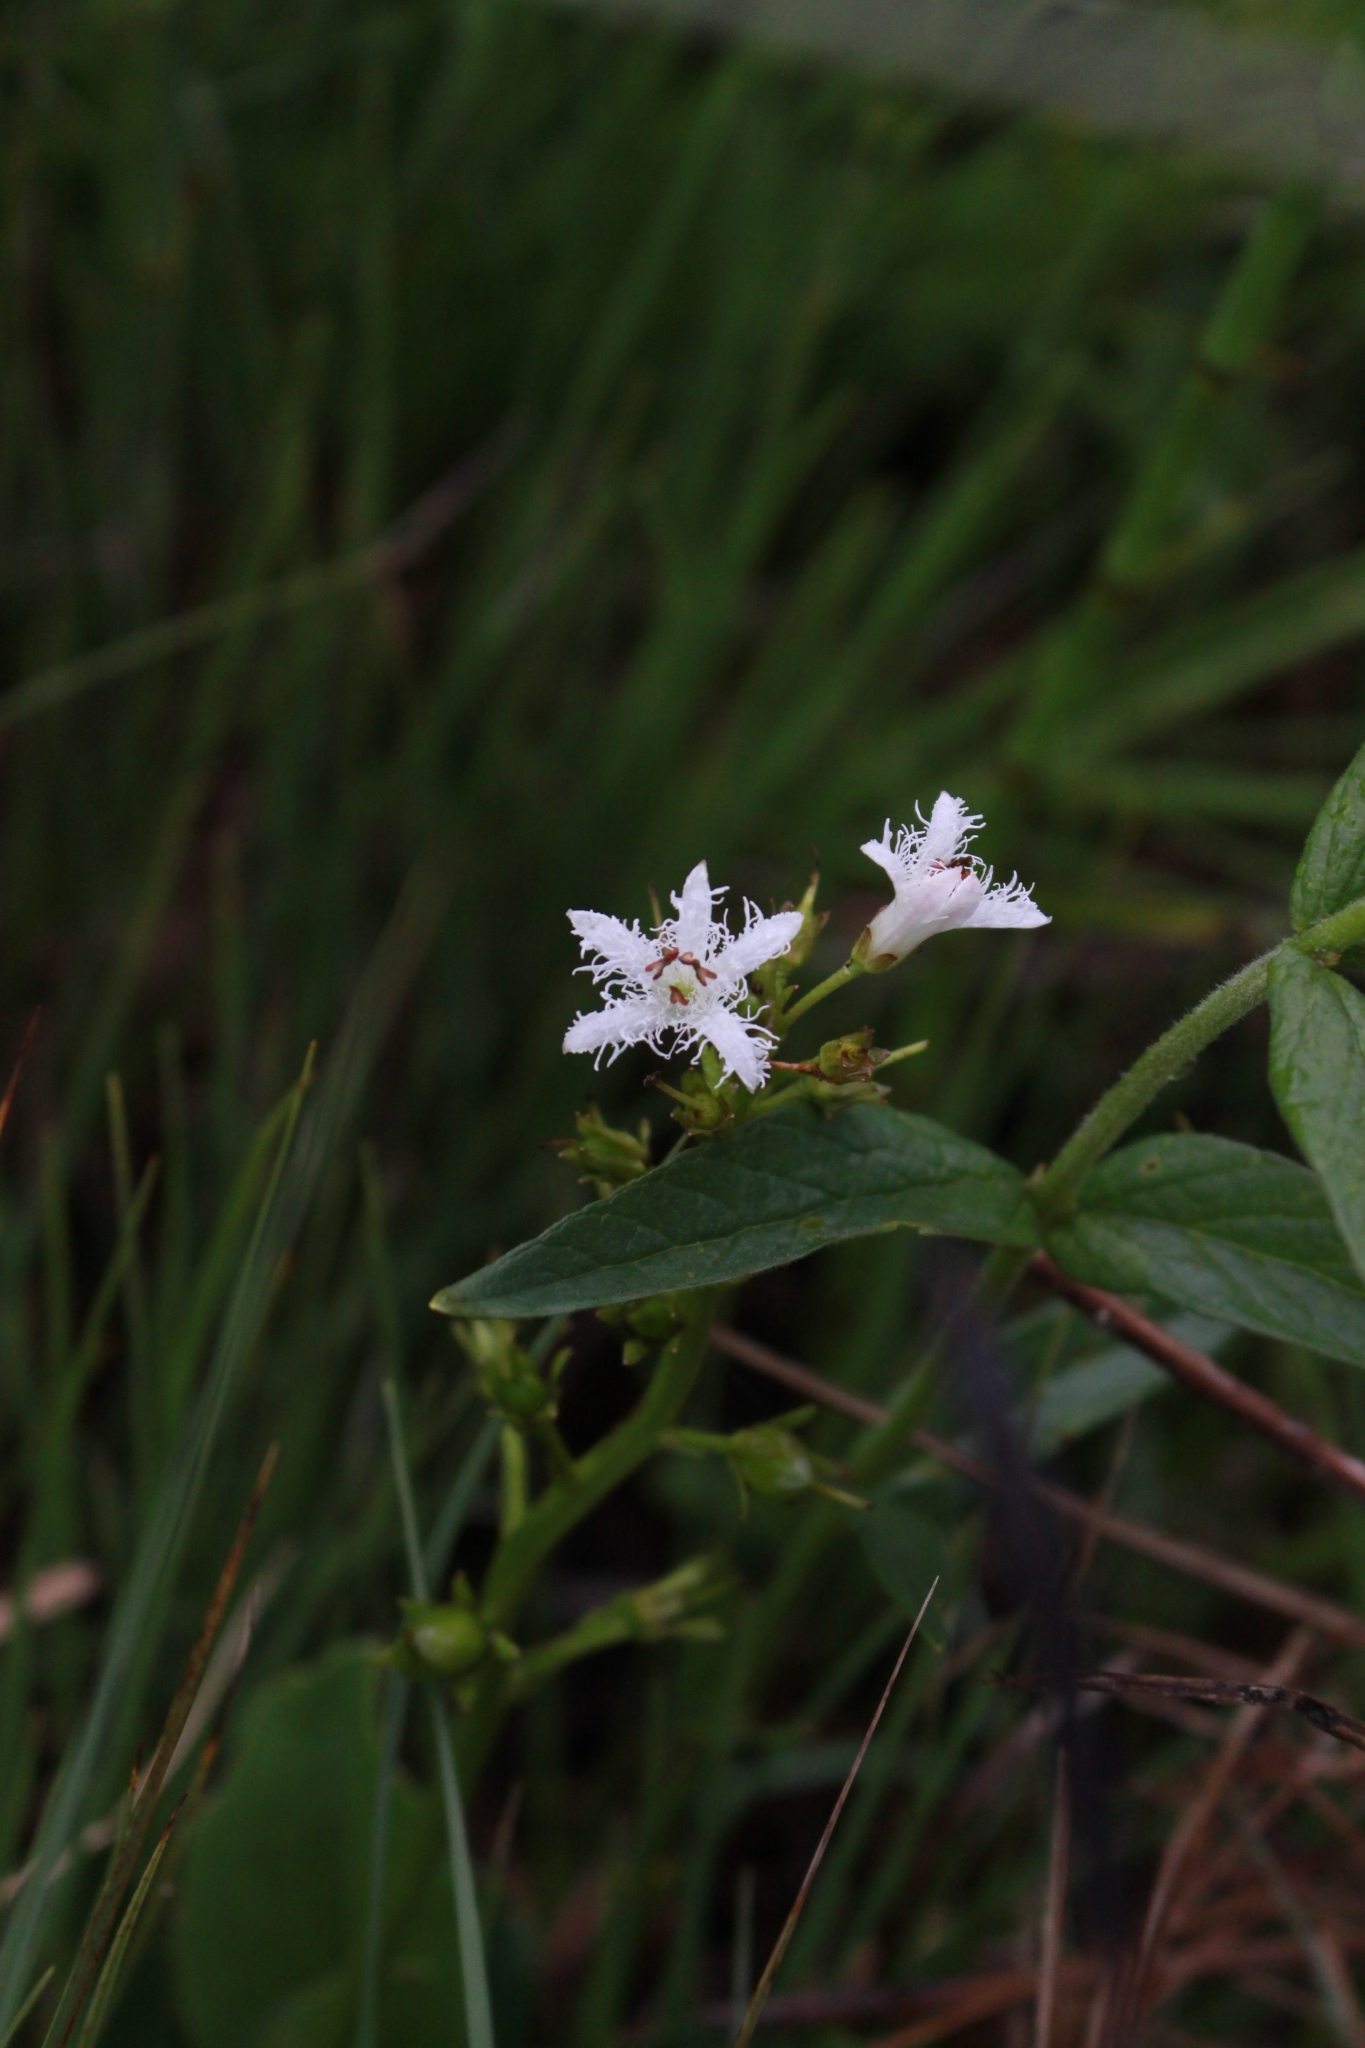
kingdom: Plantae
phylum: Tracheophyta
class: Magnoliopsida
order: Asterales
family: Menyanthaceae
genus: Menyanthes
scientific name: Menyanthes trifoliata
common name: Bogbean
